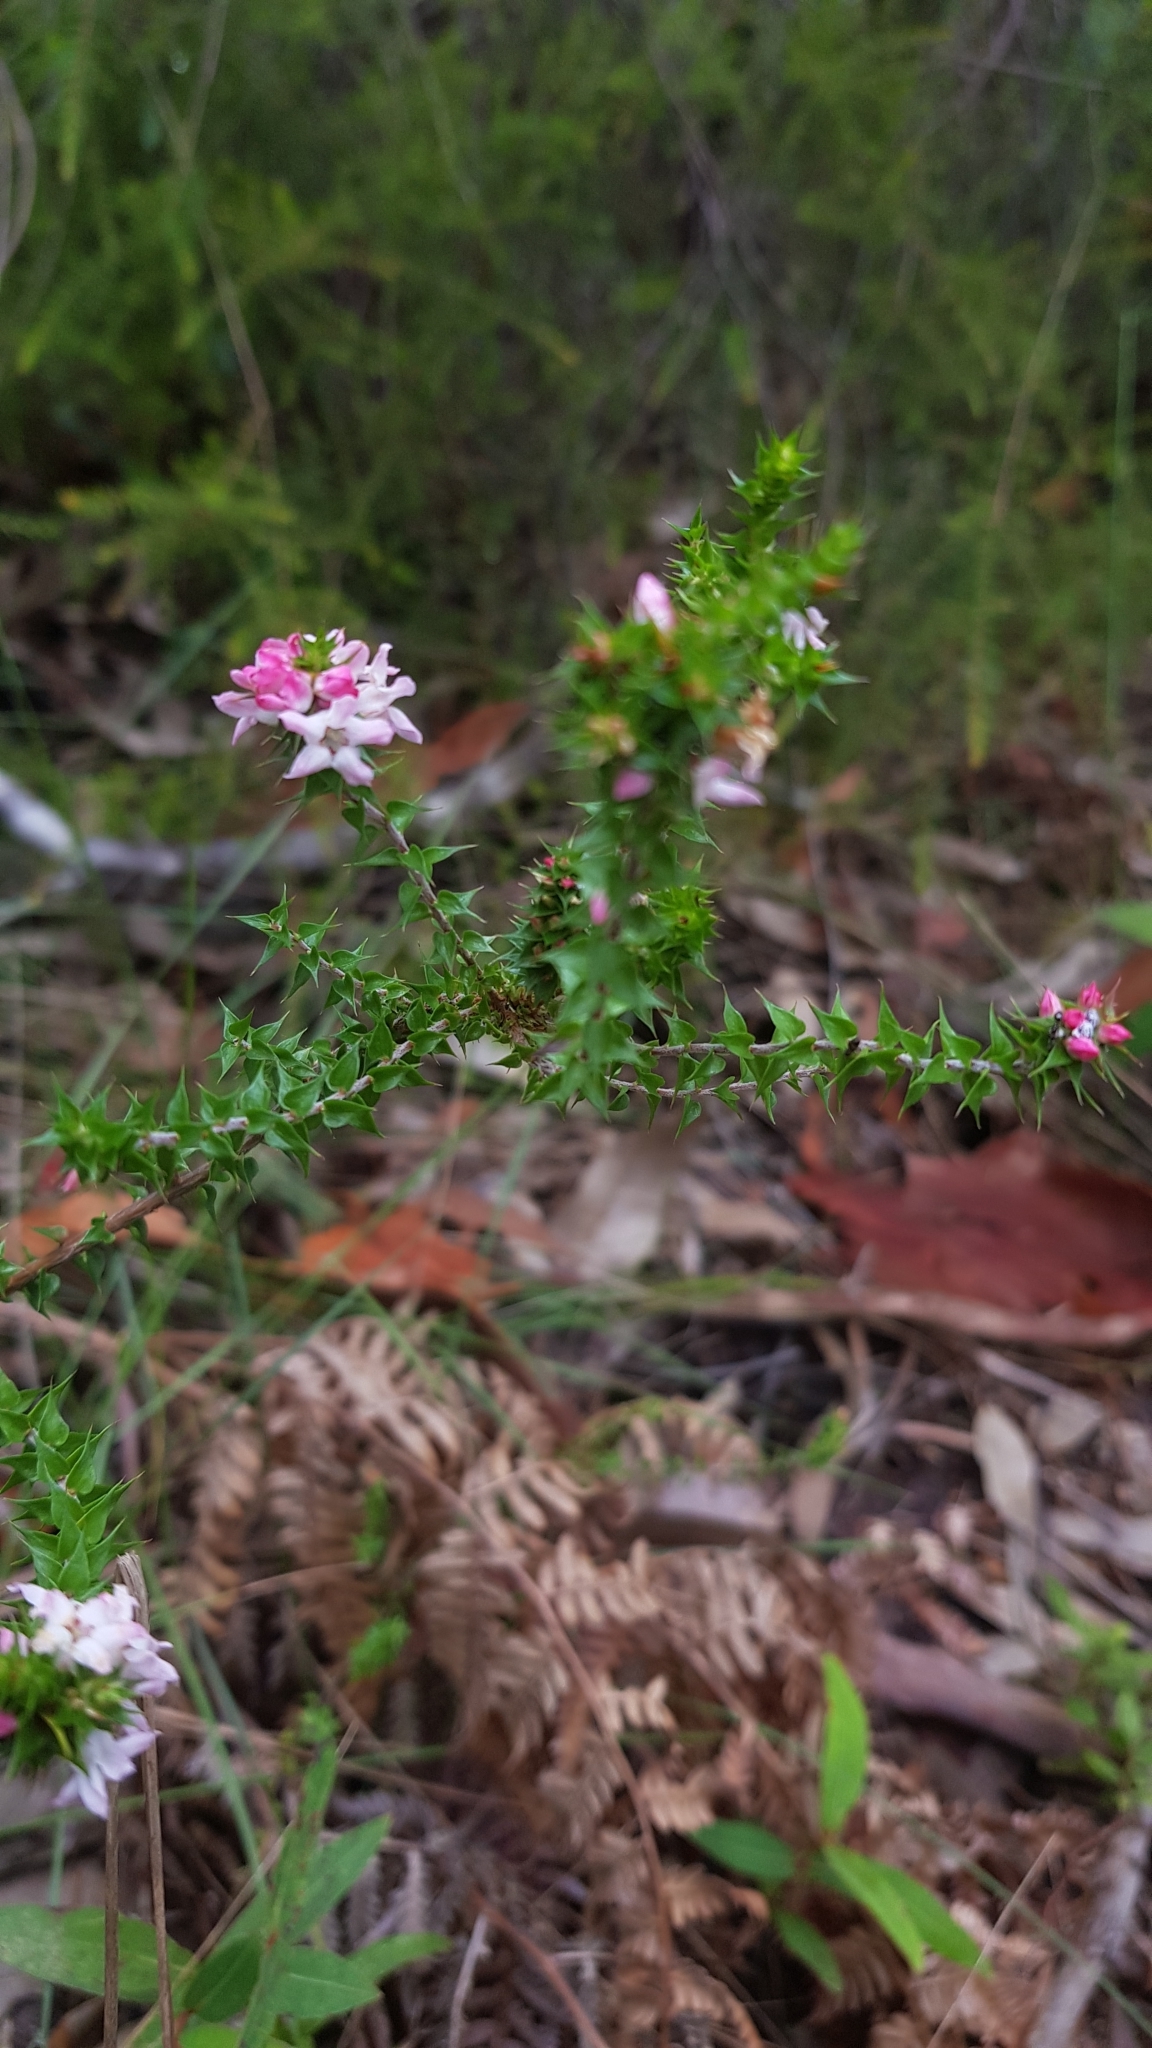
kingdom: Plantae
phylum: Tracheophyta
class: Magnoliopsida
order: Ericales
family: Ericaceae
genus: Epacris
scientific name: Epacris pulchella
